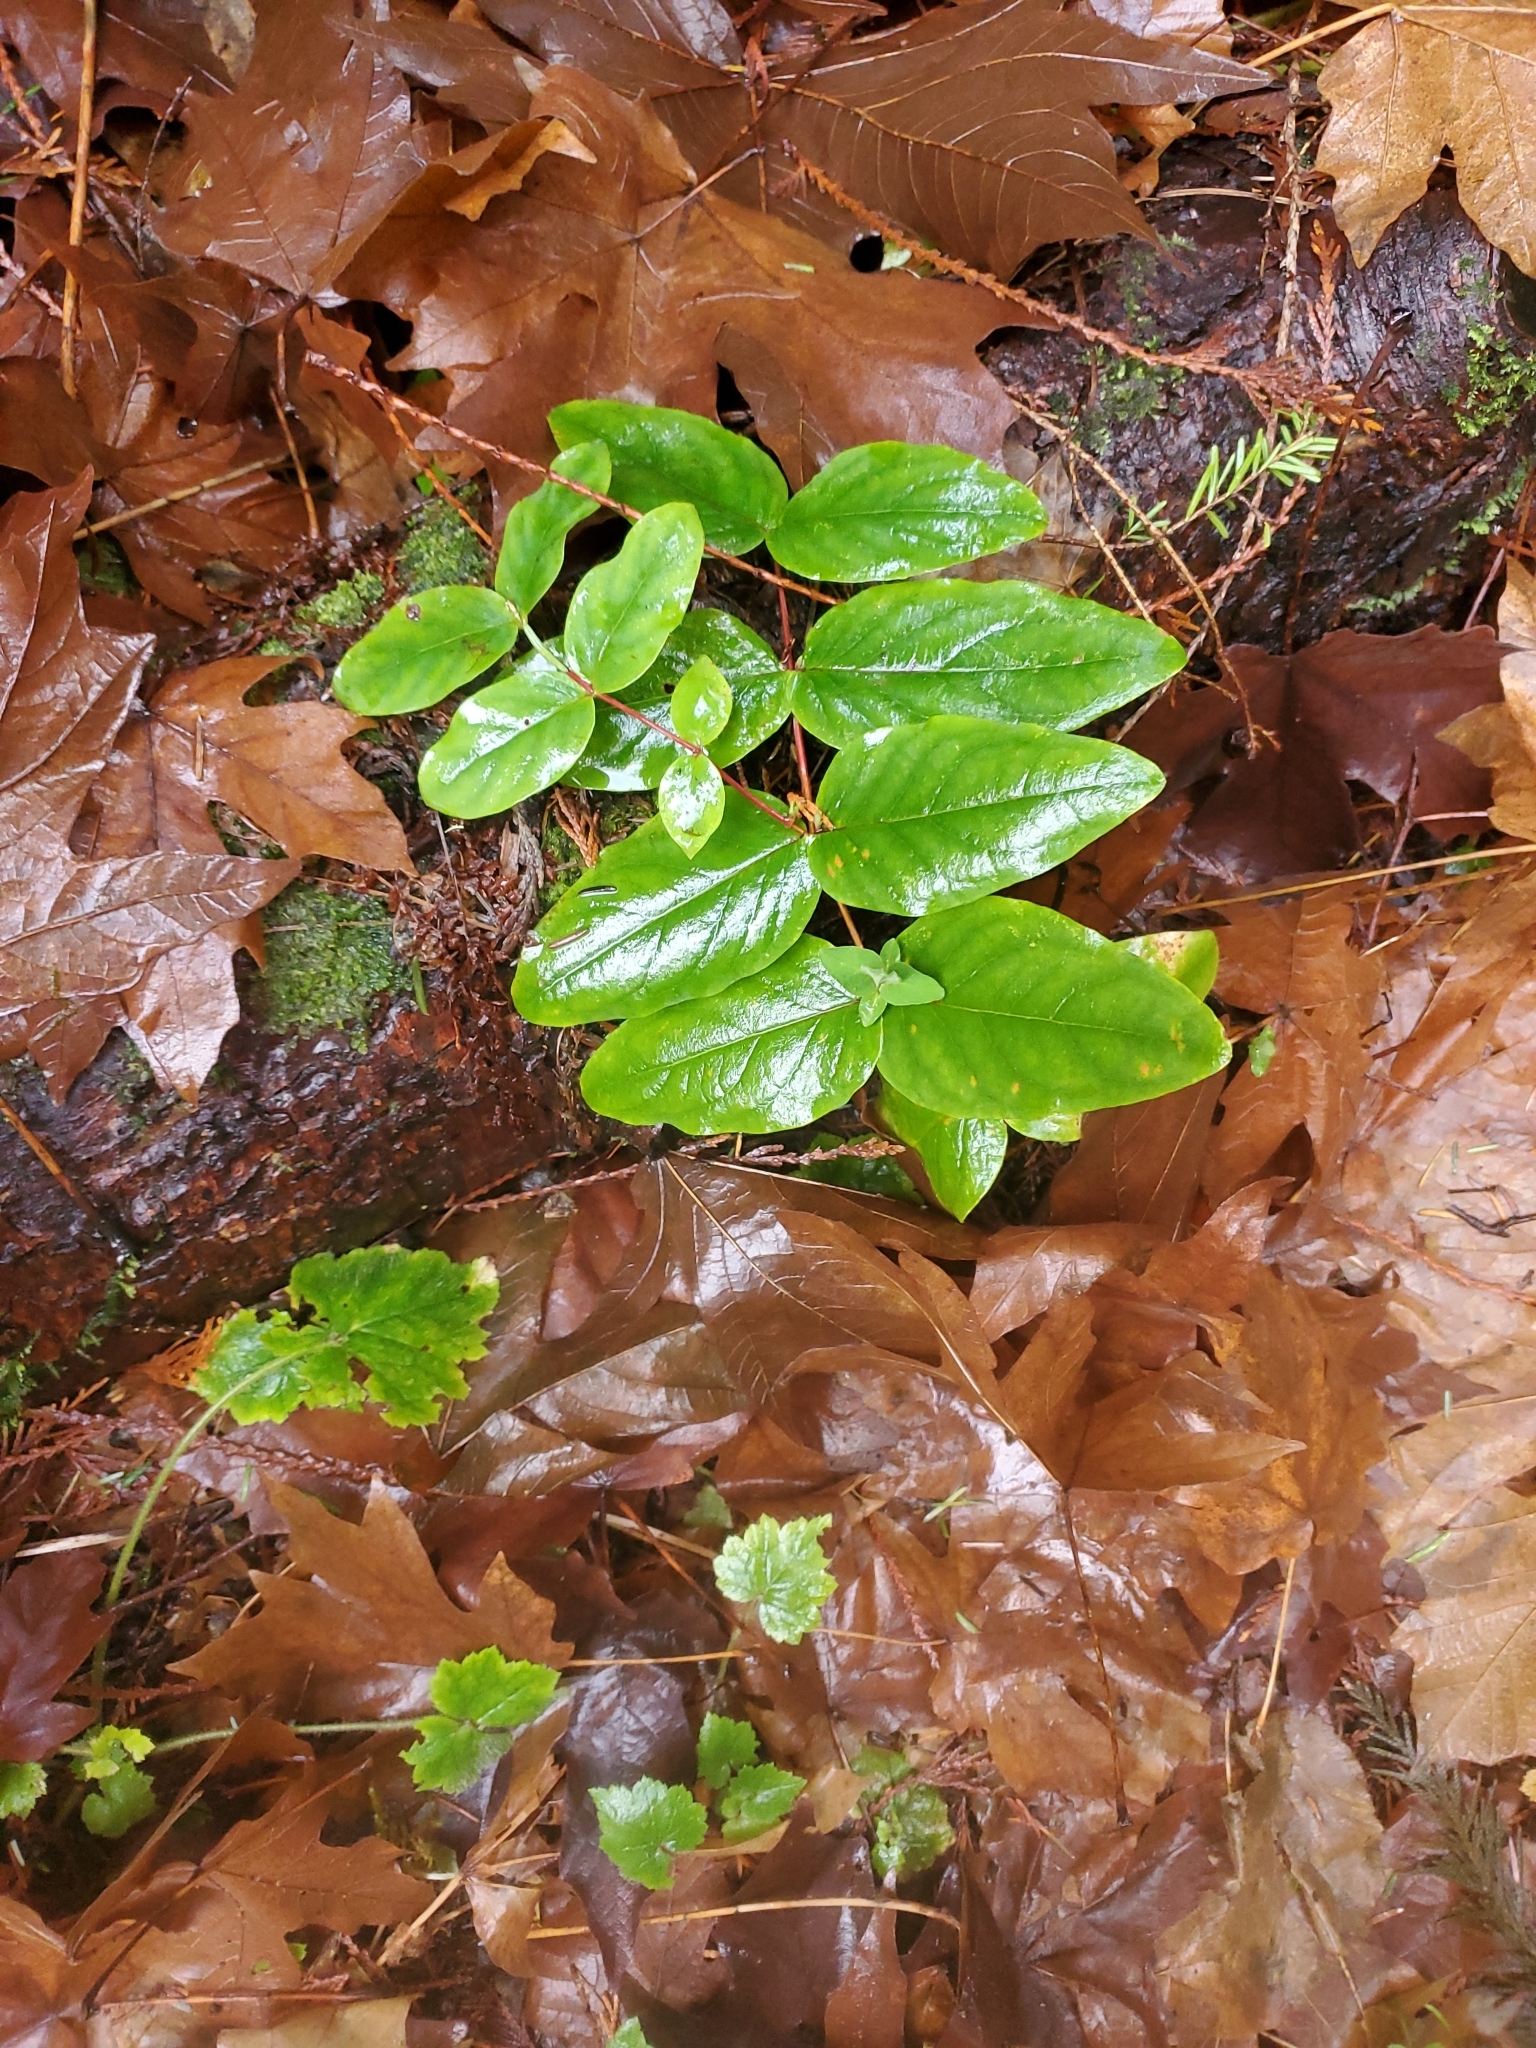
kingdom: Plantae
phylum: Tracheophyta
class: Magnoliopsida
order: Malpighiales
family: Hypericaceae
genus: Hypericum
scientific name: Hypericum androsaemum
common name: Sweet-amber
